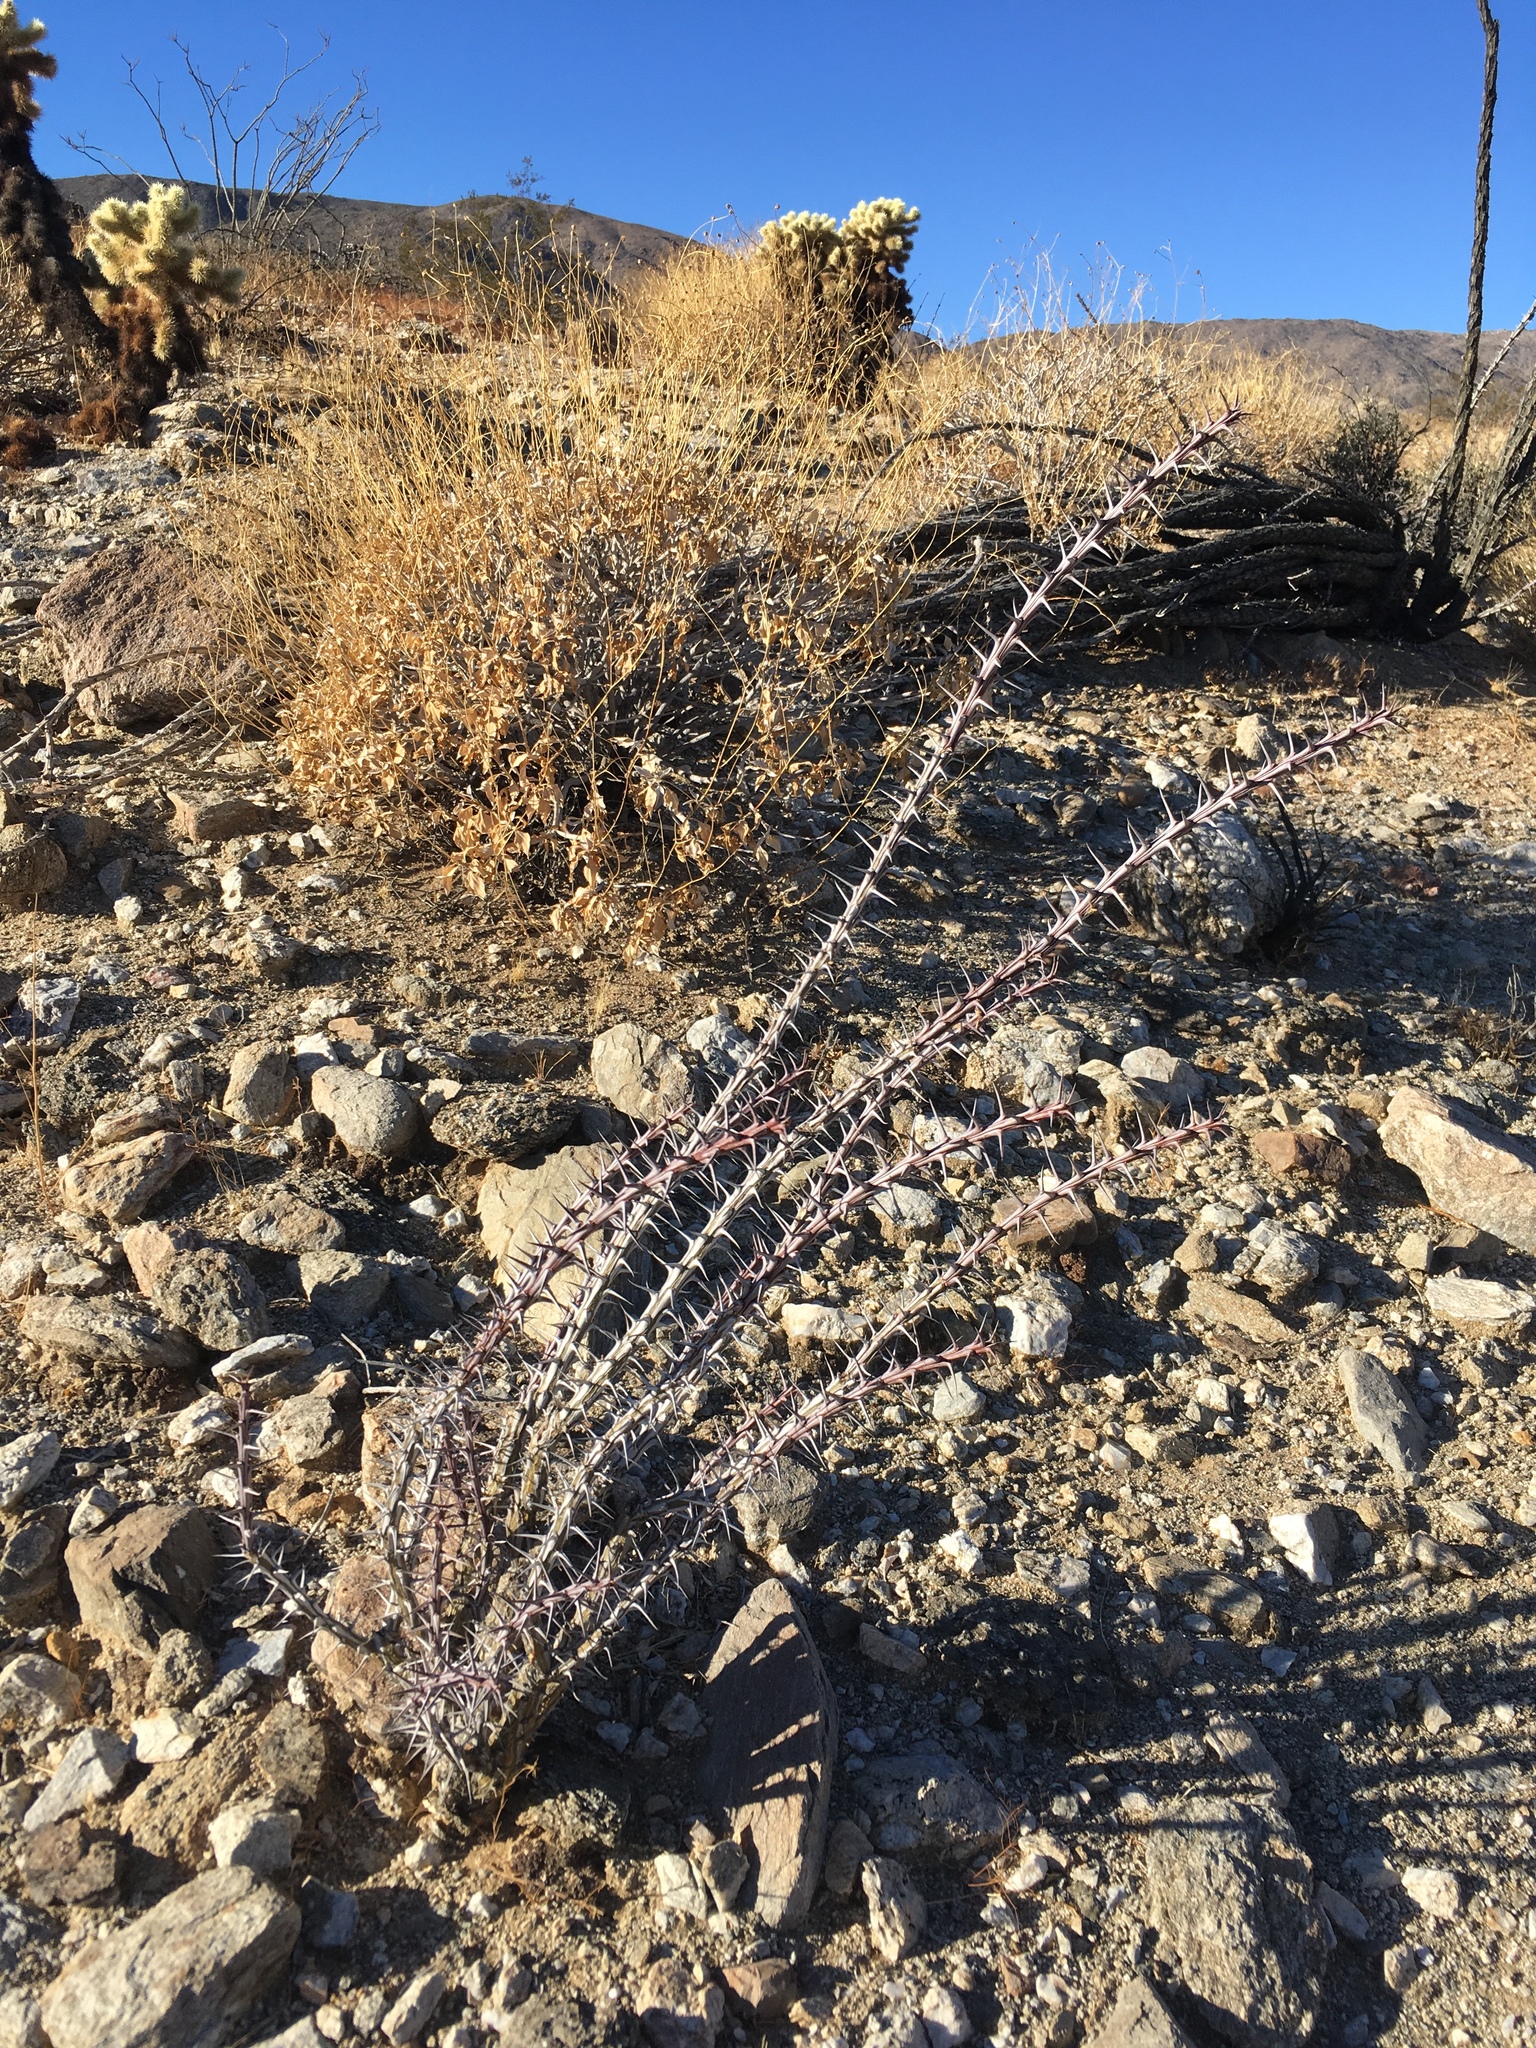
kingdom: Plantae
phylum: Tracheophyta
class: Magnoliopsida
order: Ericales
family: Fouquieriaceae
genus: Fouquieria
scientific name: Fouquieria splendens
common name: Vine-cactus
